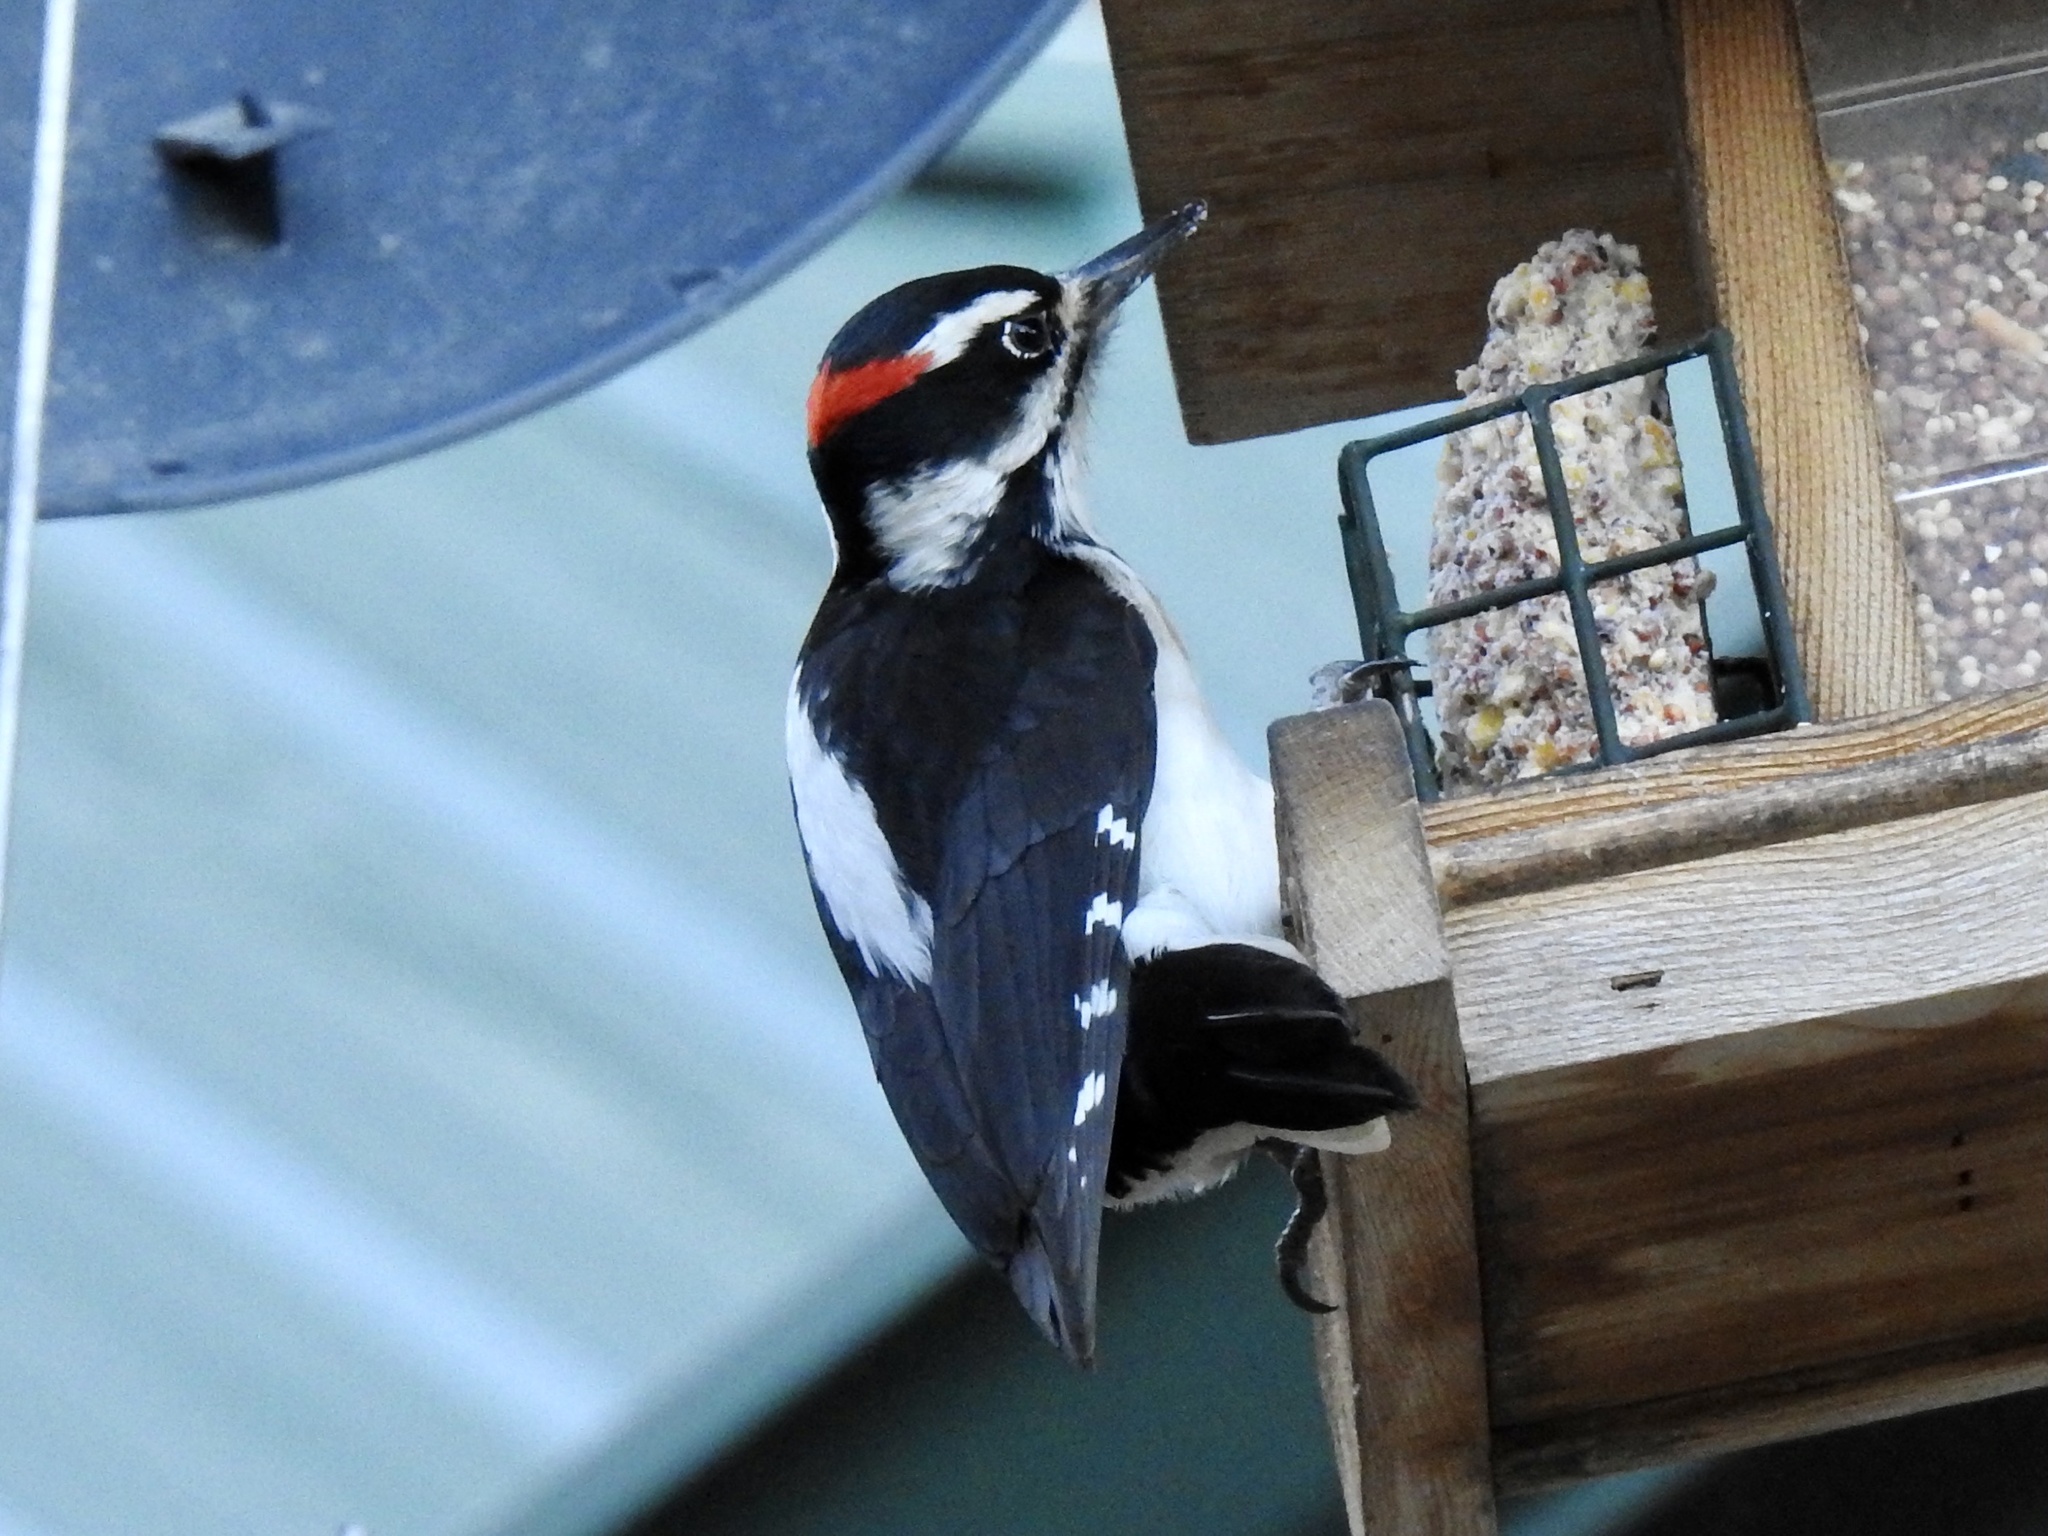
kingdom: Animalia
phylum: Chordata
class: Aves
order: Piciformes
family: Picidae
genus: Leuconotopicus
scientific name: Leuconotopicus villosus
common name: Hairy woodpecker
